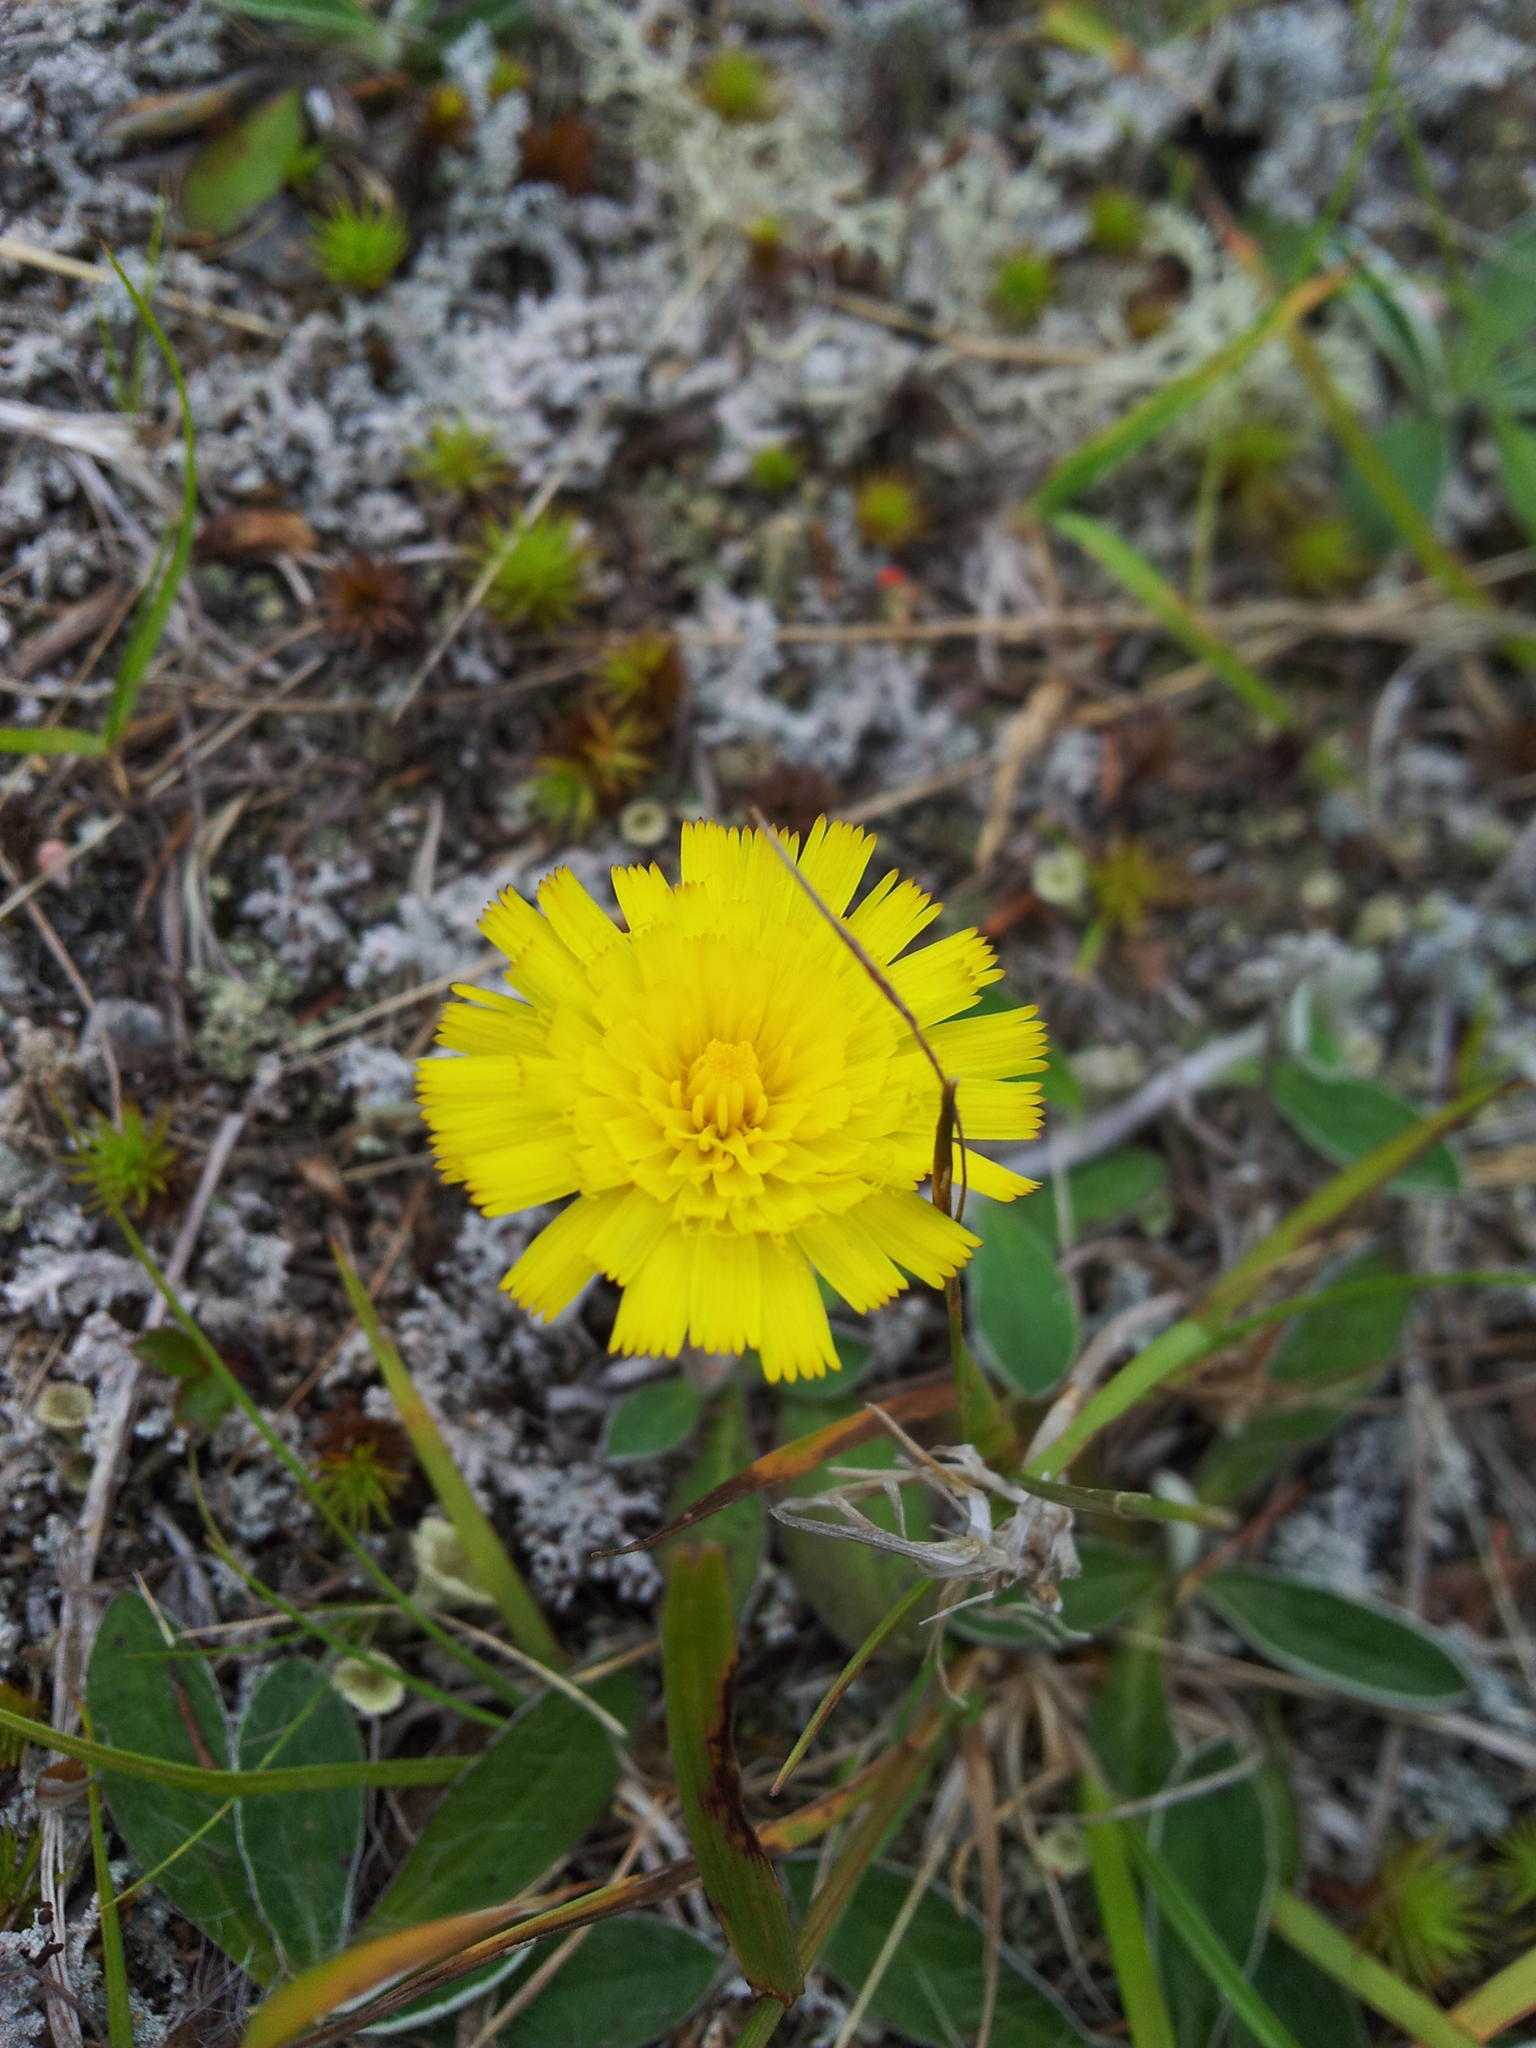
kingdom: Plantae
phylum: Tracheophyta
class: Magnoliopsida
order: Asterales
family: Asteraceae
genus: Pilosella
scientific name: Pilosella officinarum
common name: Mouse-ear hawkweed
